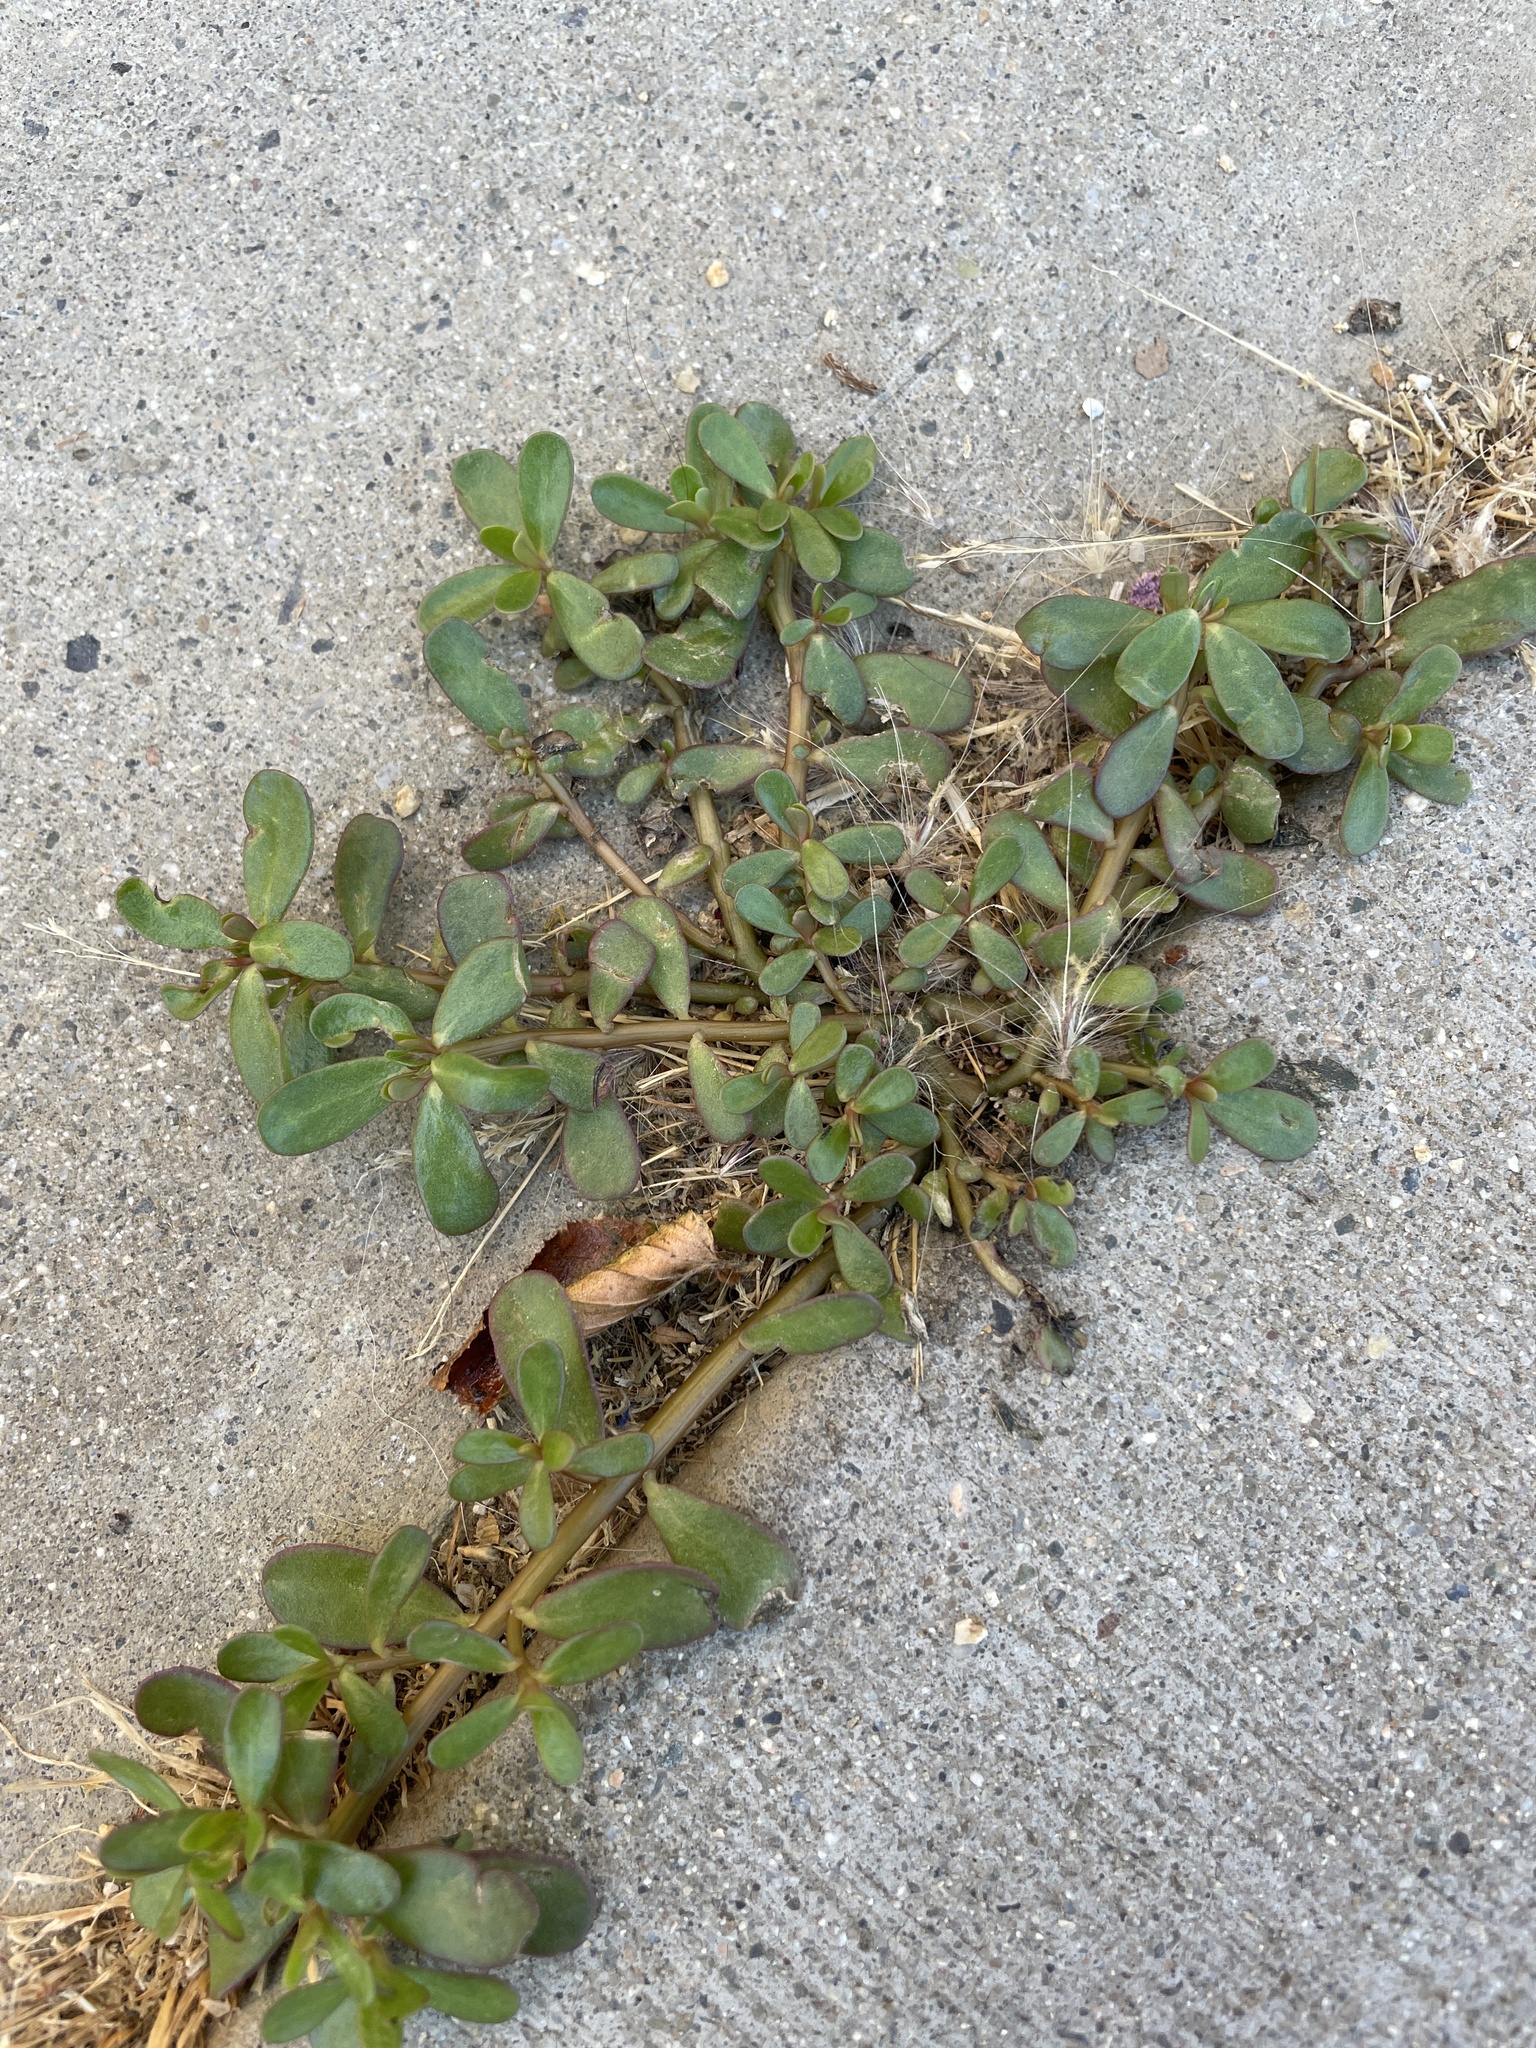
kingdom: Plantae
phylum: Tracheophyta
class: Magnoliopsida
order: Caryophyllales
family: Portulacaceae
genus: Portulaca
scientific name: Portulaca oleracea
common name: Common purslane
